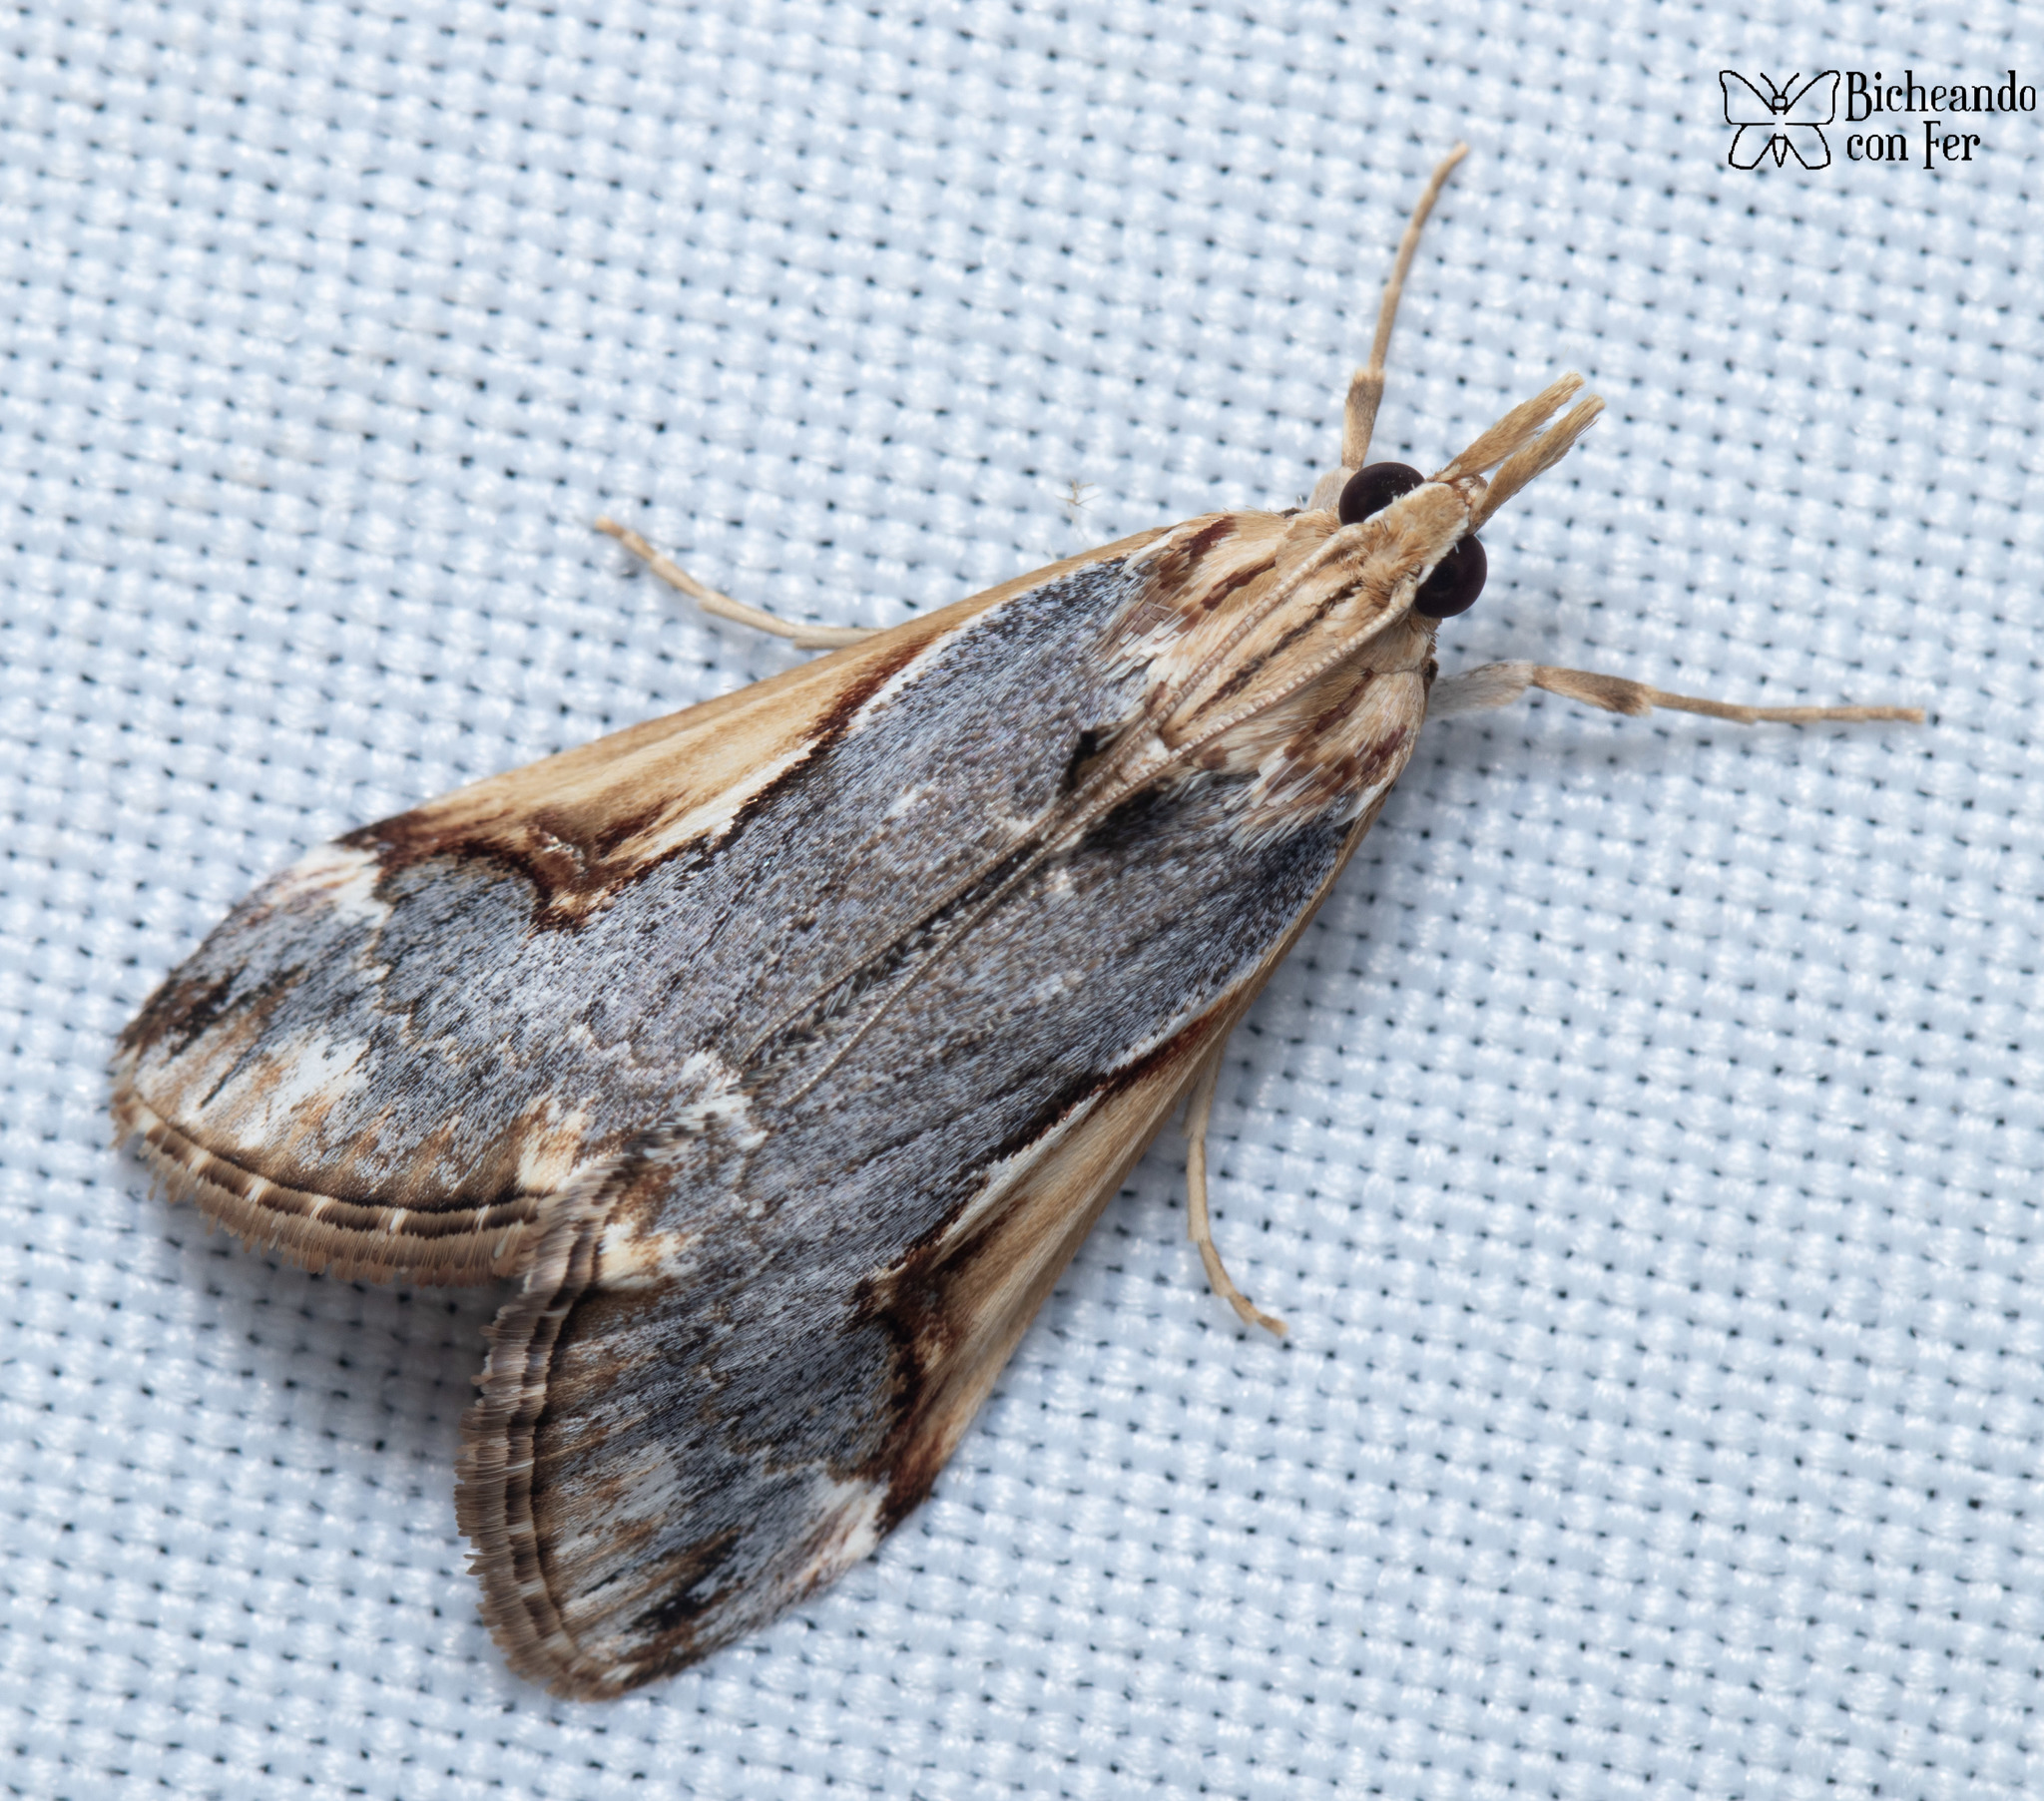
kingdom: Animalia
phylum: Arthropoda
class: Insecta
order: Lepidoptera
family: Crambidae
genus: Loxostege
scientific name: Loxostege albiceralis
